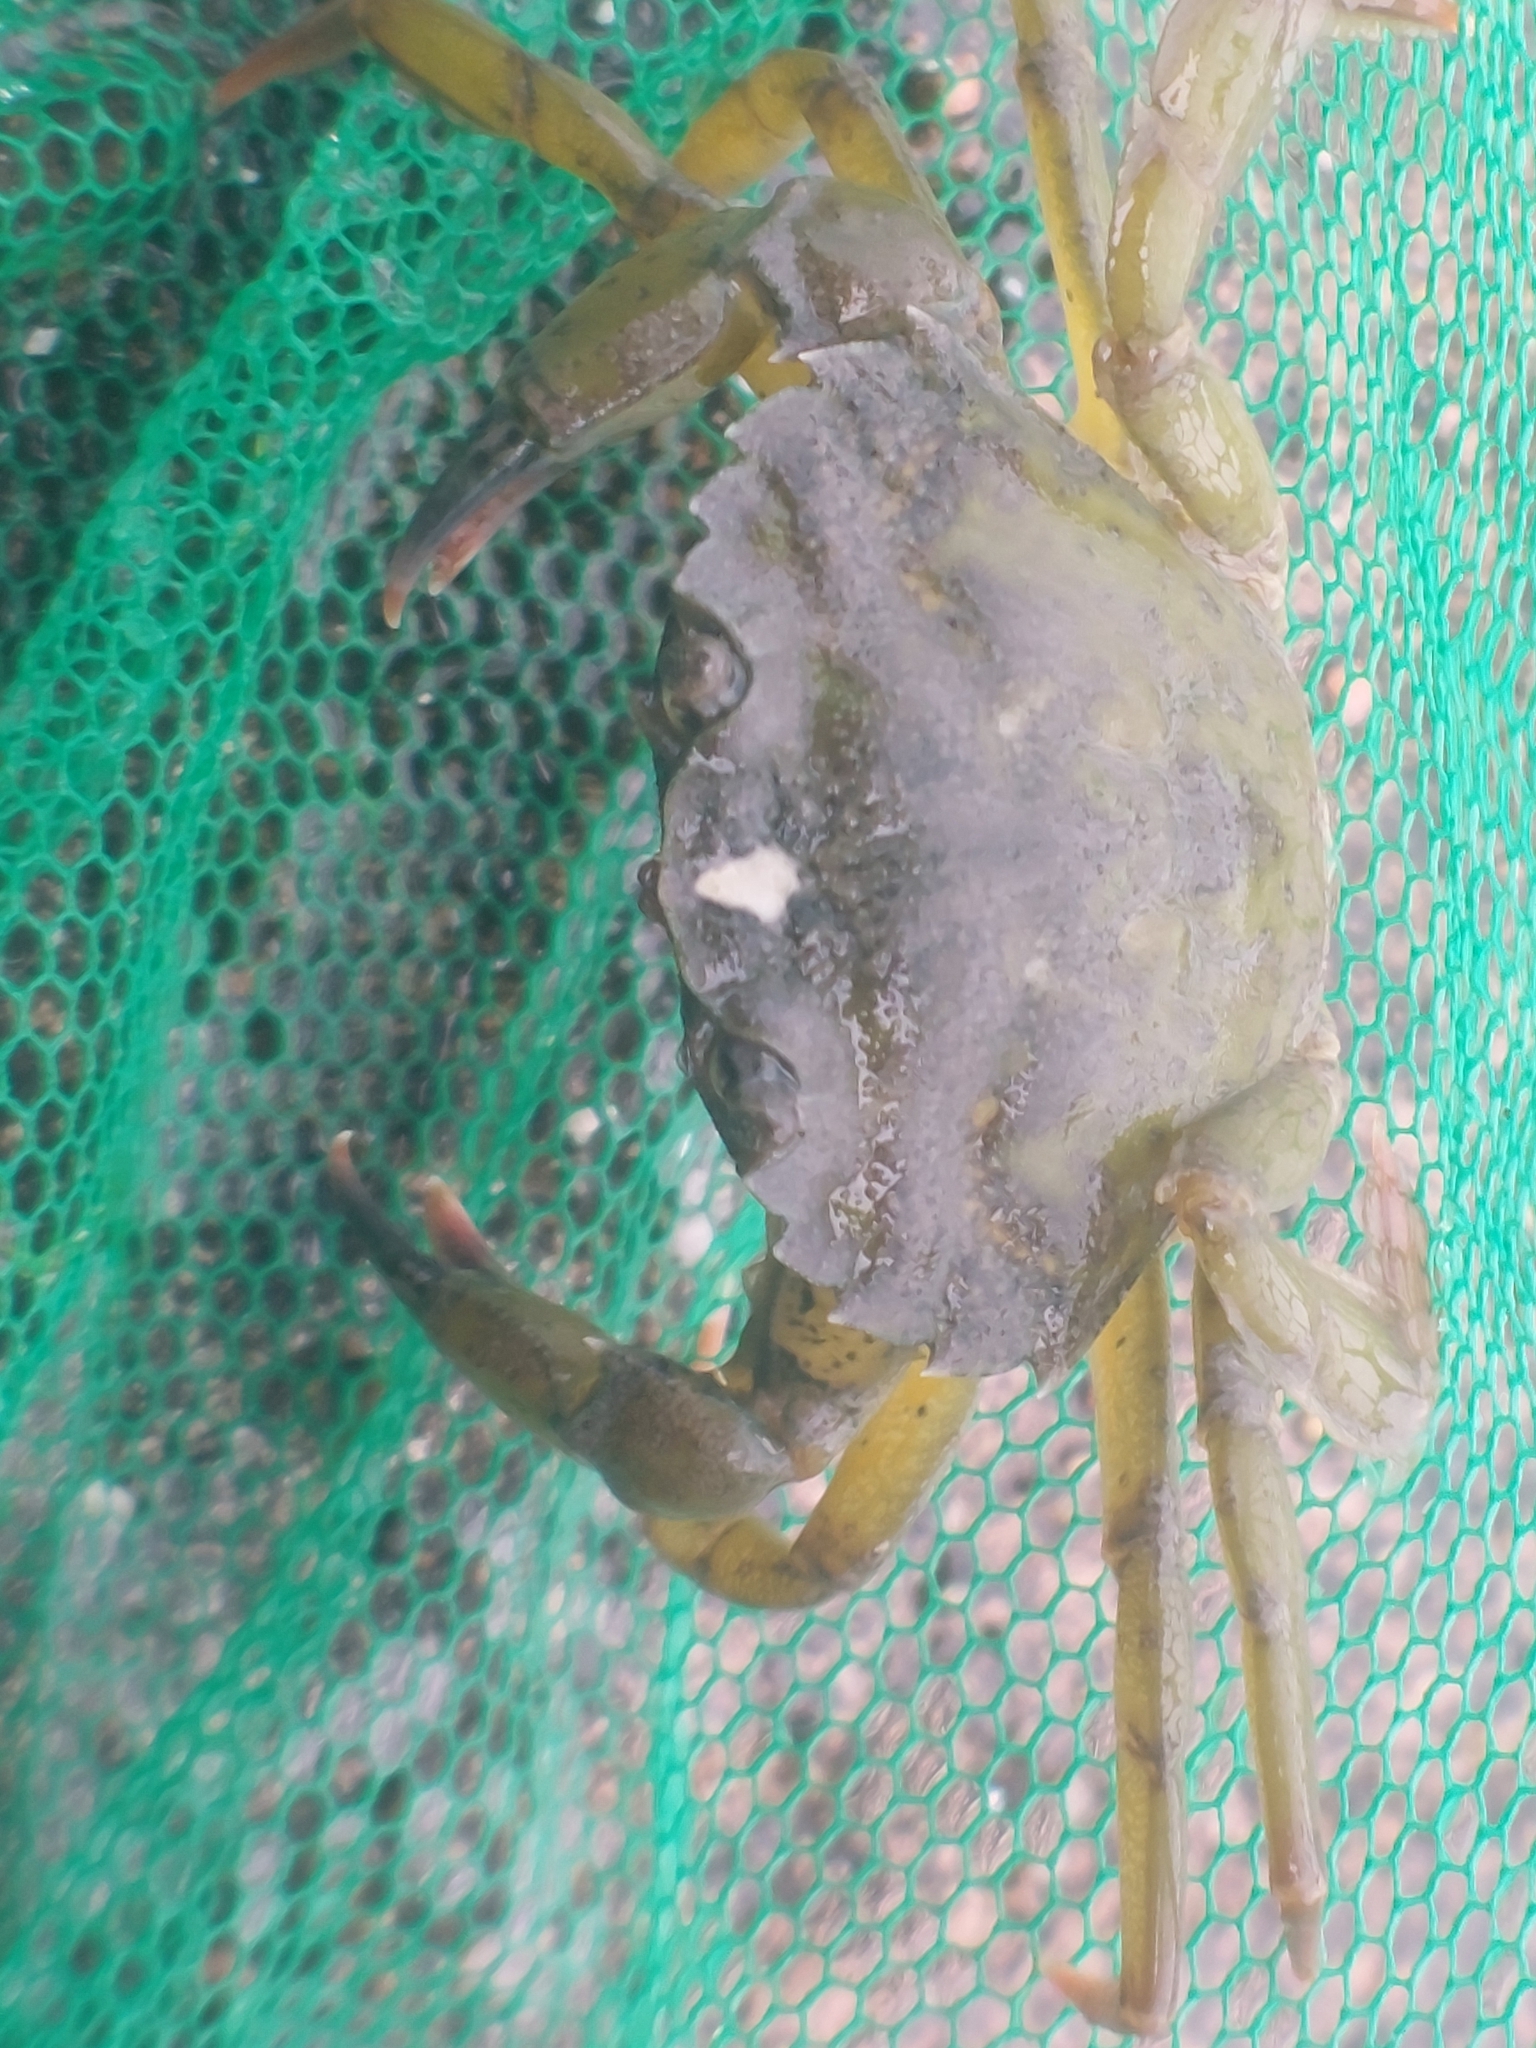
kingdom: Animalia
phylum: Arthropoda
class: Malacostraca
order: Decapoda
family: Carcinidae
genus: Carcinus
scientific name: Carcinus maenas
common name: European green crab
